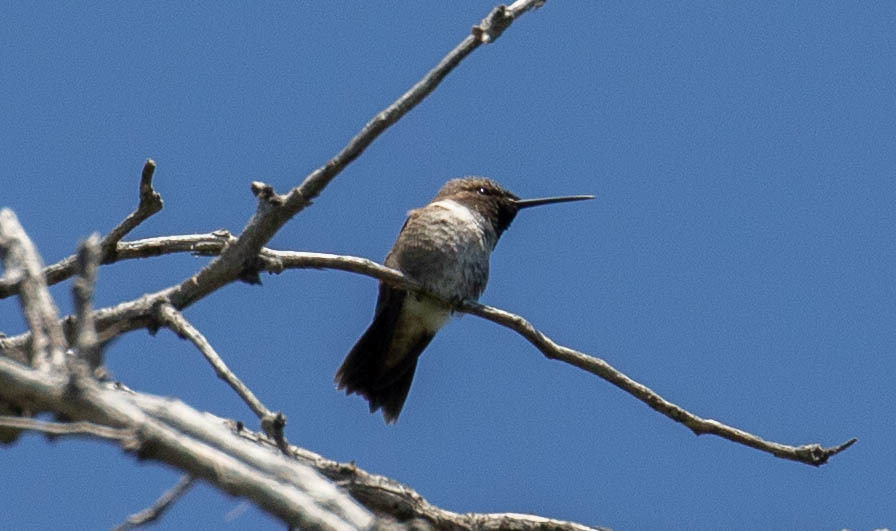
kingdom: Animalia
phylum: Chordata
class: Aves
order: Apodiformes
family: Trochilidae
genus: Archilochus
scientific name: Archilochus alexandri
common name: Black-chinned hummingbird
